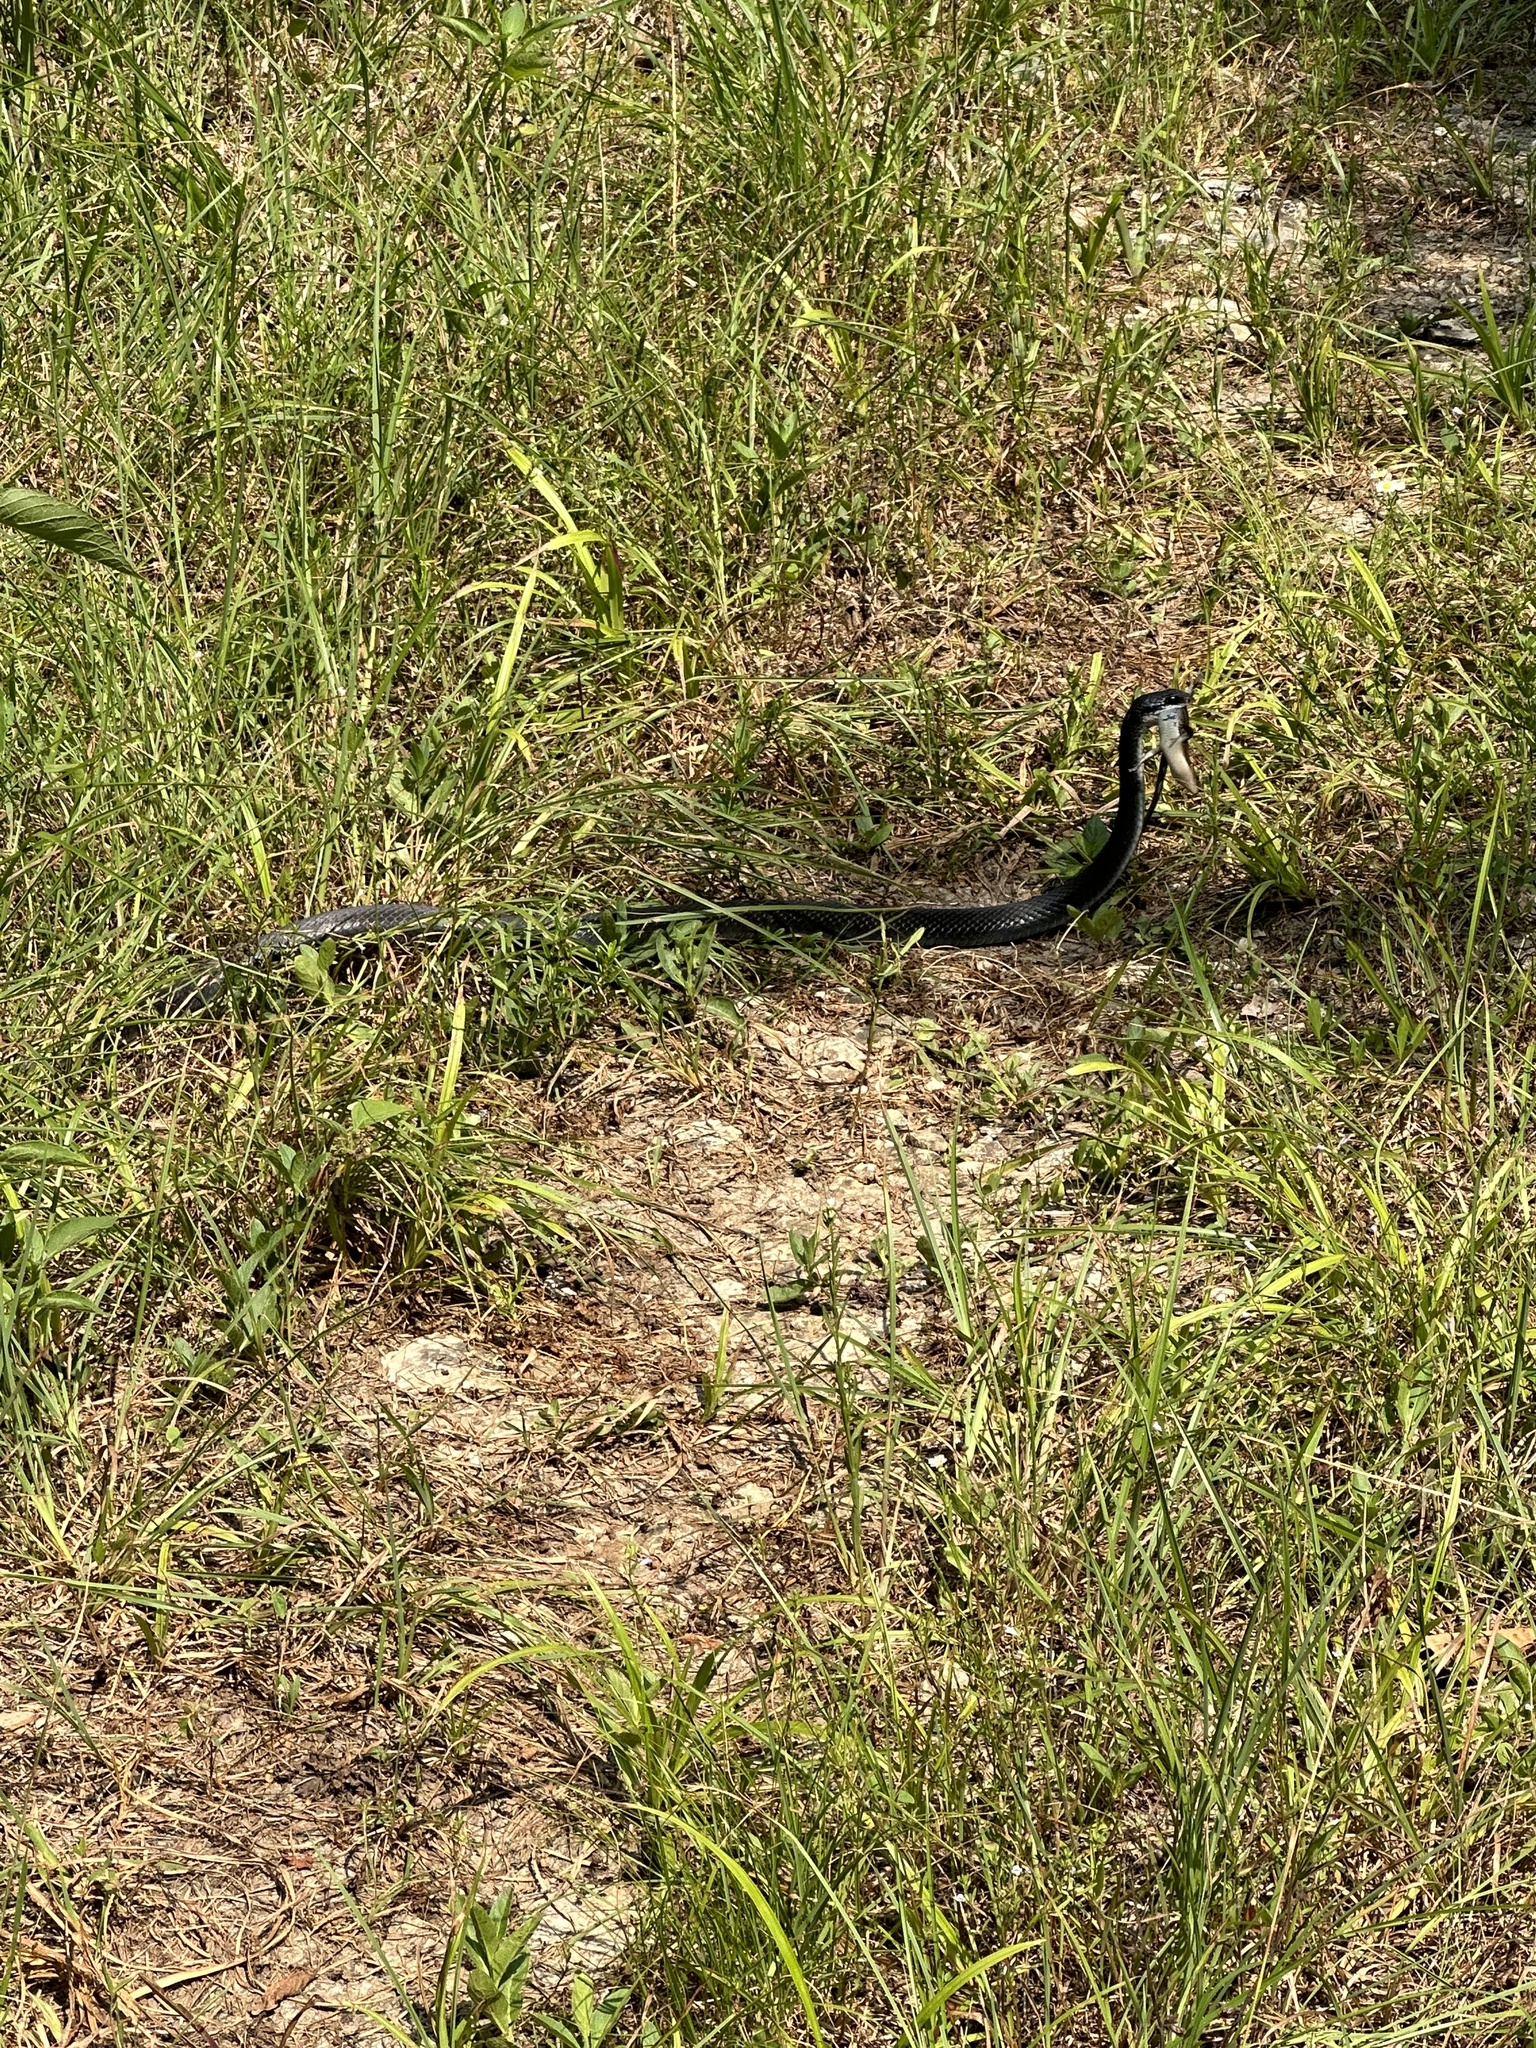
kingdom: Animalia
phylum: Chordata
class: Squamata
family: Colubridae
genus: Coluber
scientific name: Coluber constrictor
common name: Eastern racer
